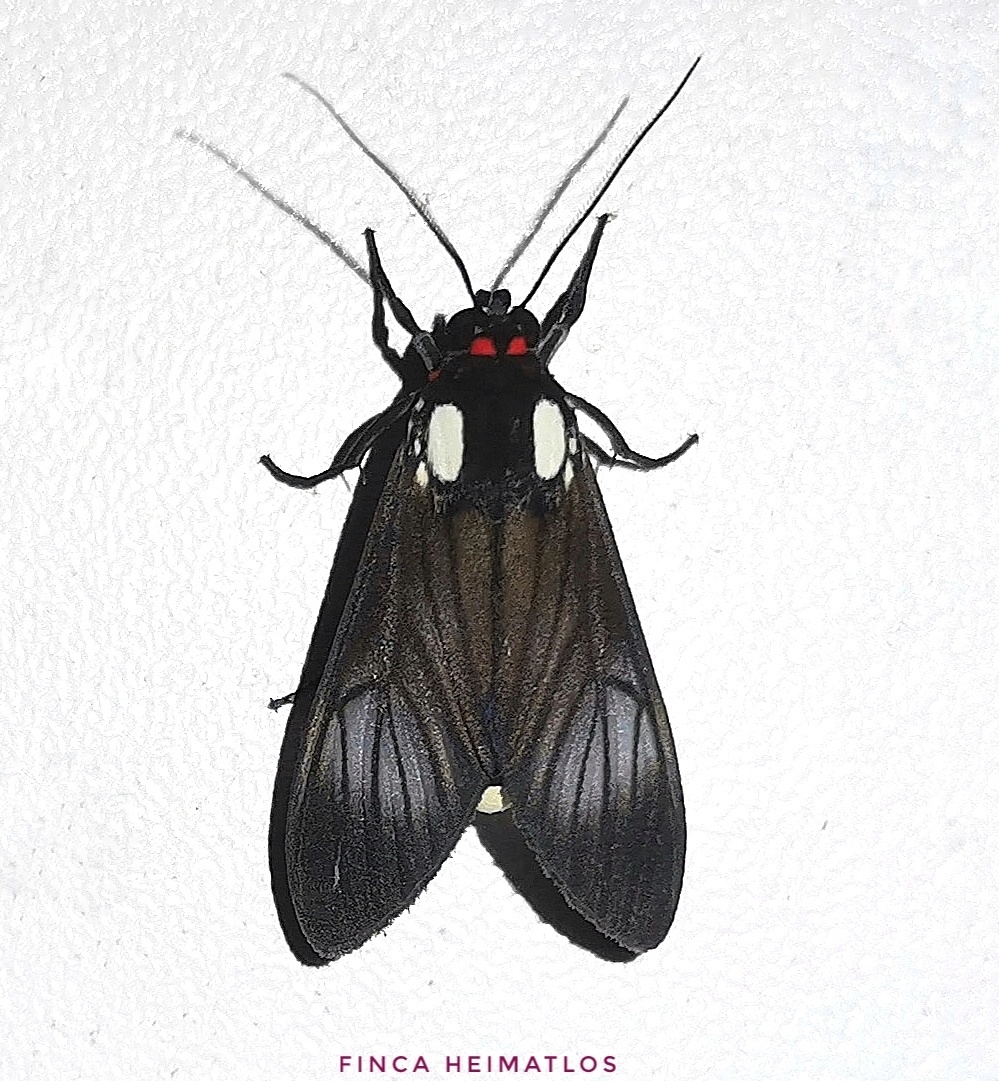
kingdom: Animalia
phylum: Arthropoda
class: Insecta
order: Lepidoptera
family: Erebidae
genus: Telioneura
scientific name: Telioneura glaucopis
